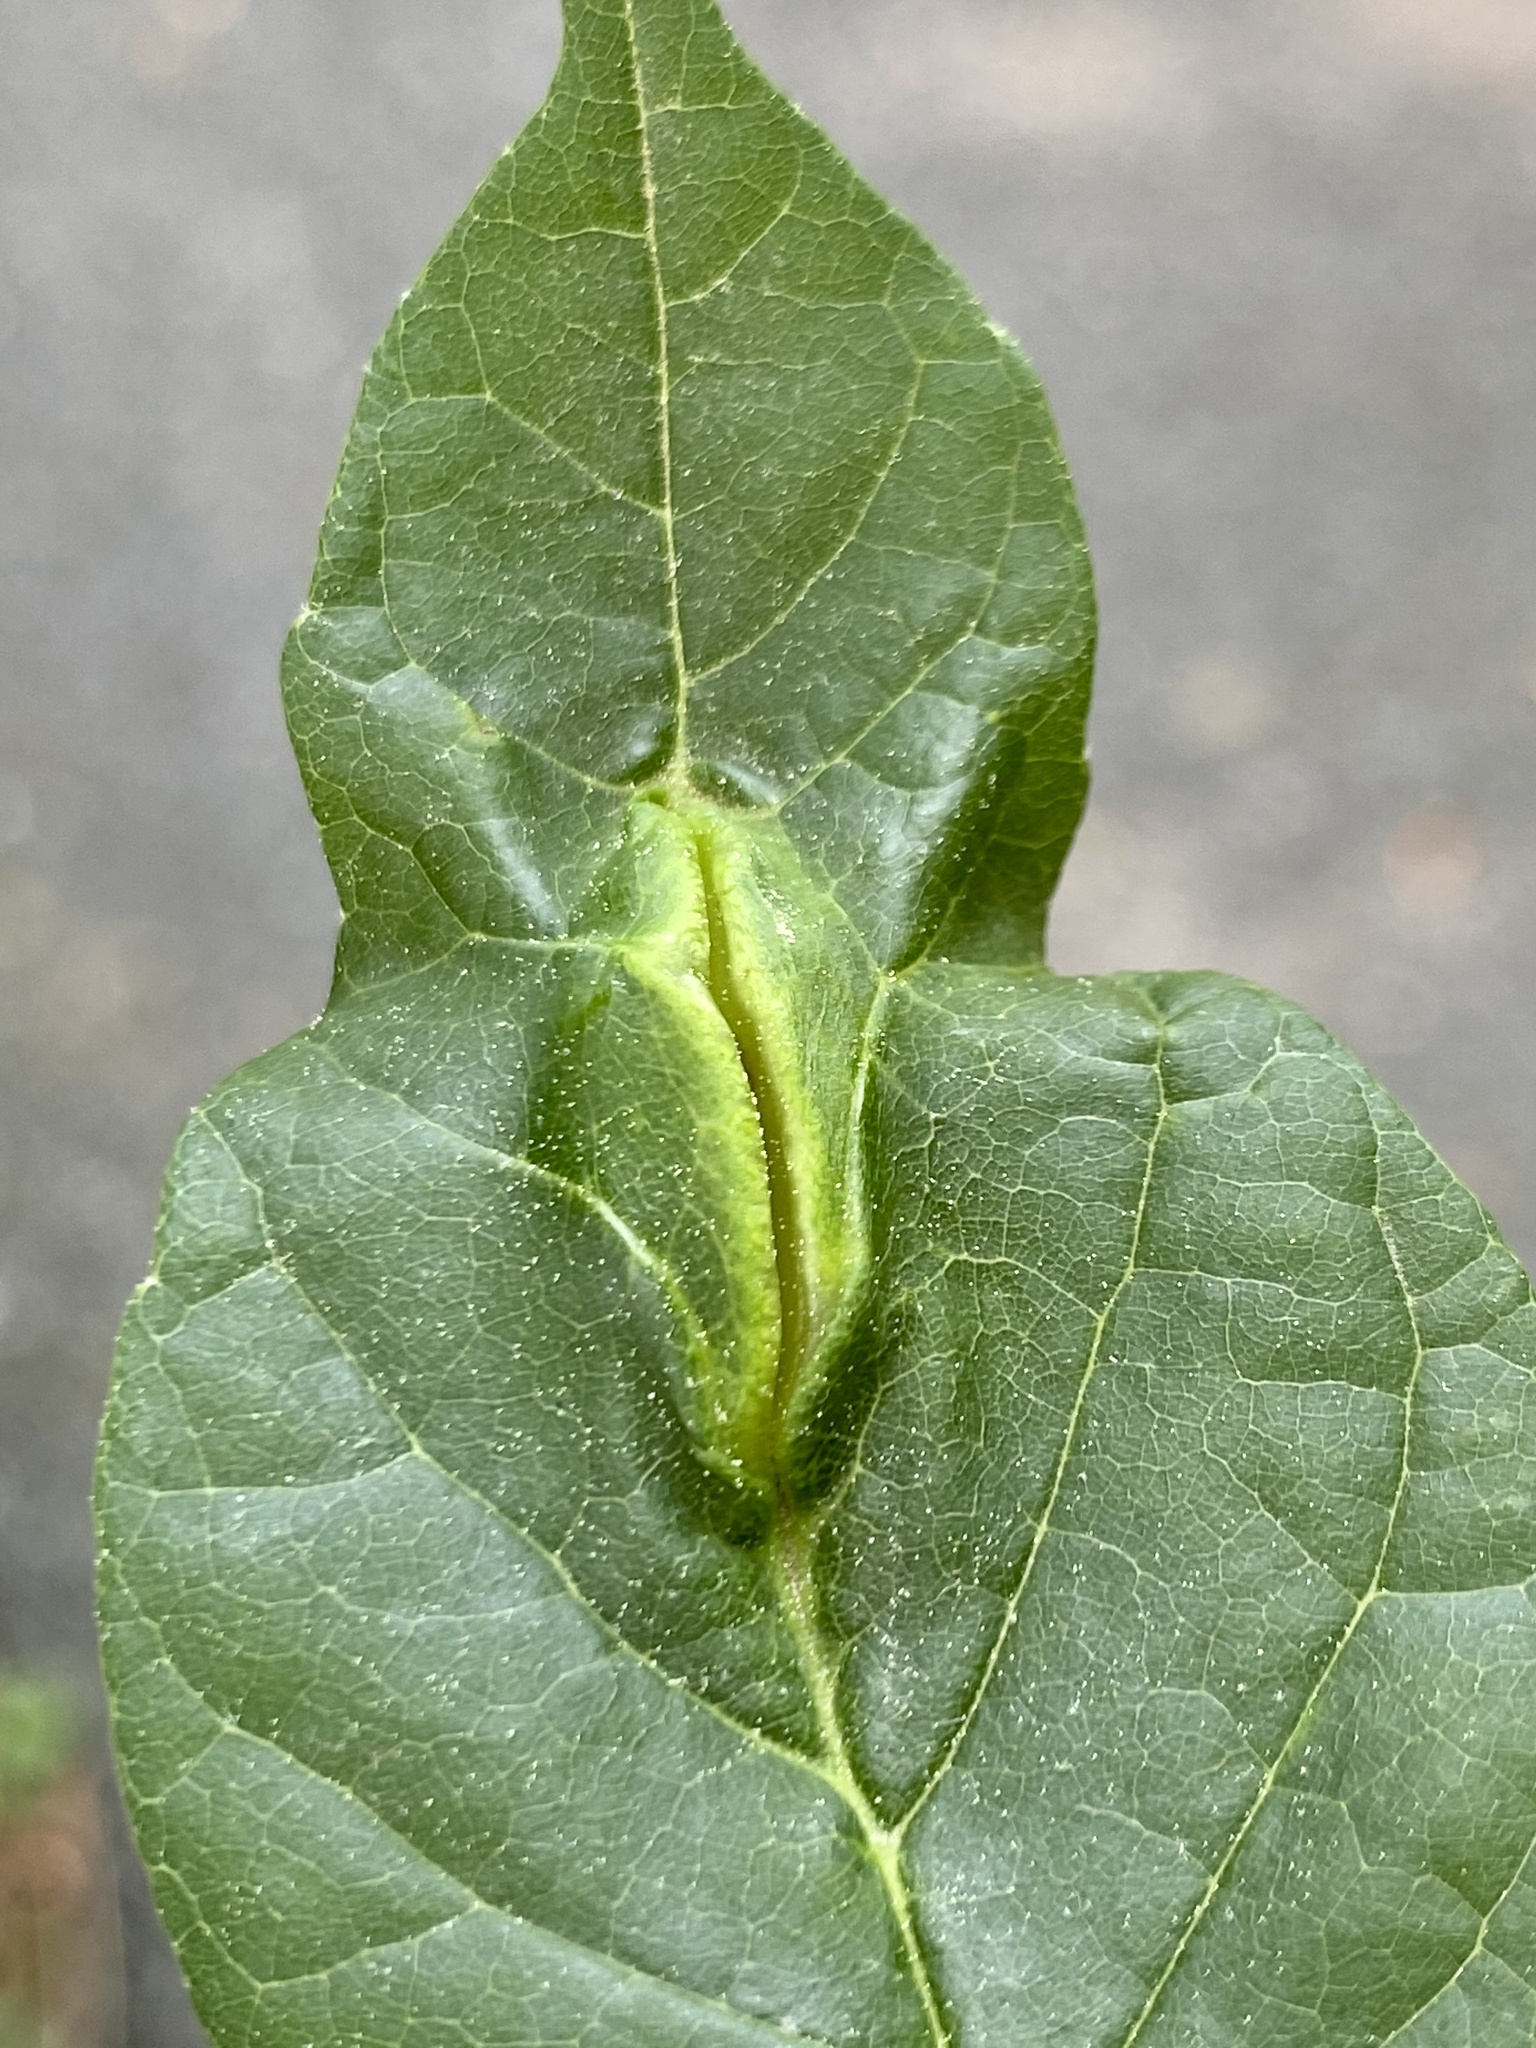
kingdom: Animalia
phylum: Arthropoda
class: Insecta
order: Diptera
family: Cecidomyiidae
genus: Dasineura
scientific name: Dasineura tumidosae
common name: Ash petiole gall midge
